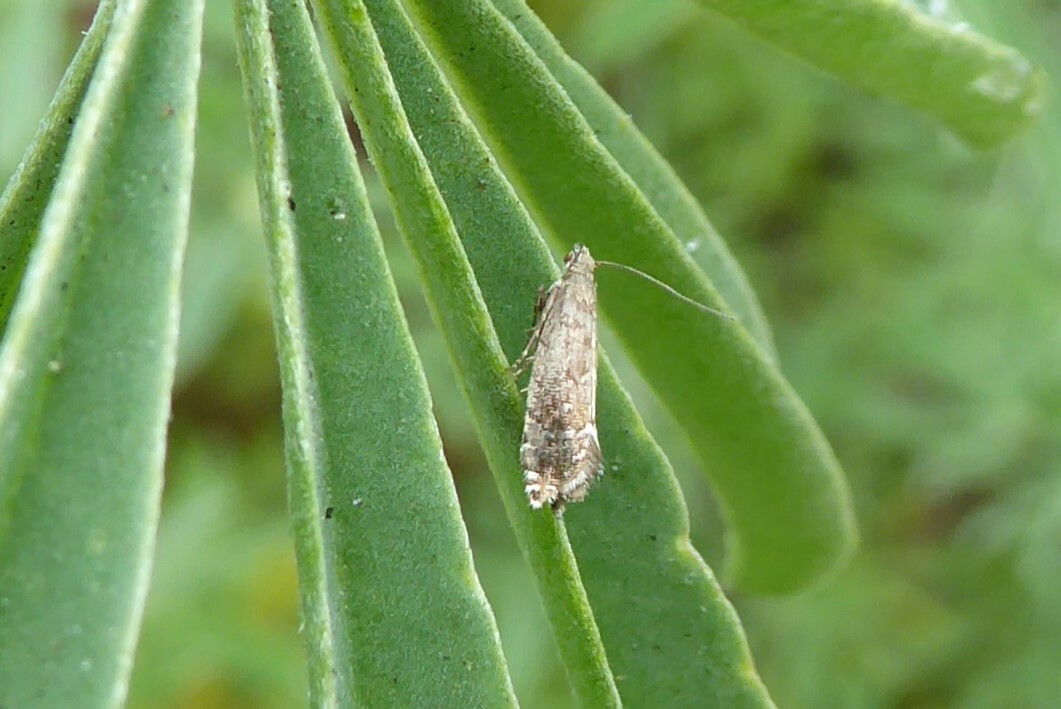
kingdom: Animalia
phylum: Arthropoda
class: Insecta
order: Lepidoptera
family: Glyphipterigidae
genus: Glyphipterix
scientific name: Glyphipterix nephoptera
